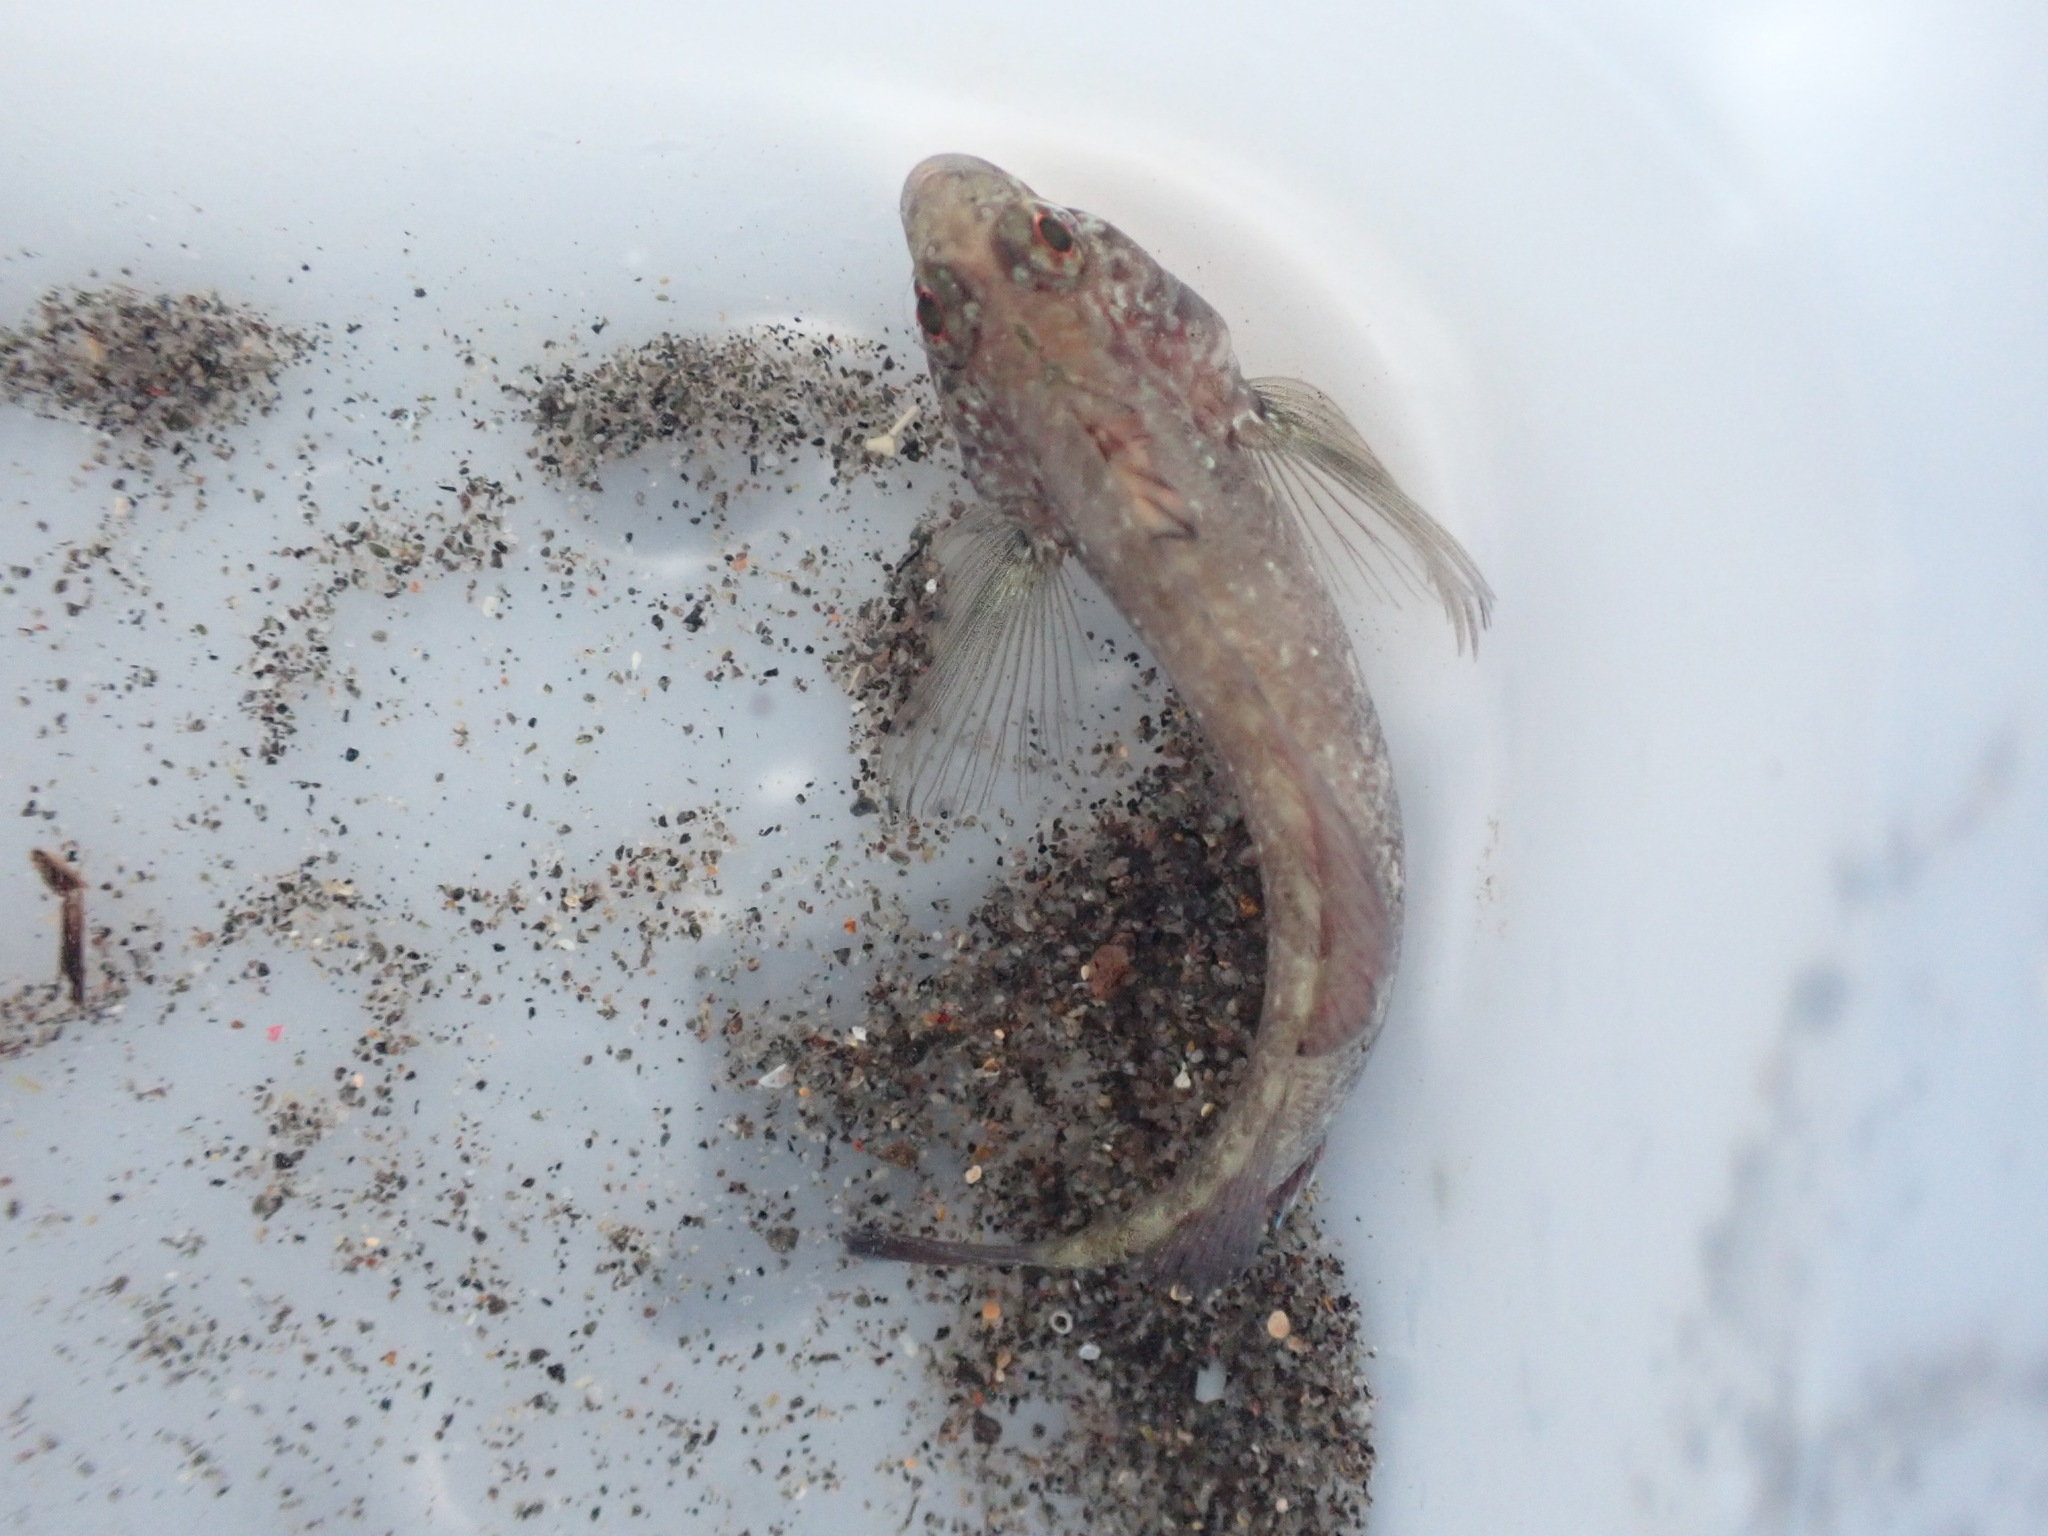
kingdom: Animalia
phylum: Chordata
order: Perciformes
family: Tripterygiidae
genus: Forsterygion
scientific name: Forsterygion lapillum
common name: Common triplefin
